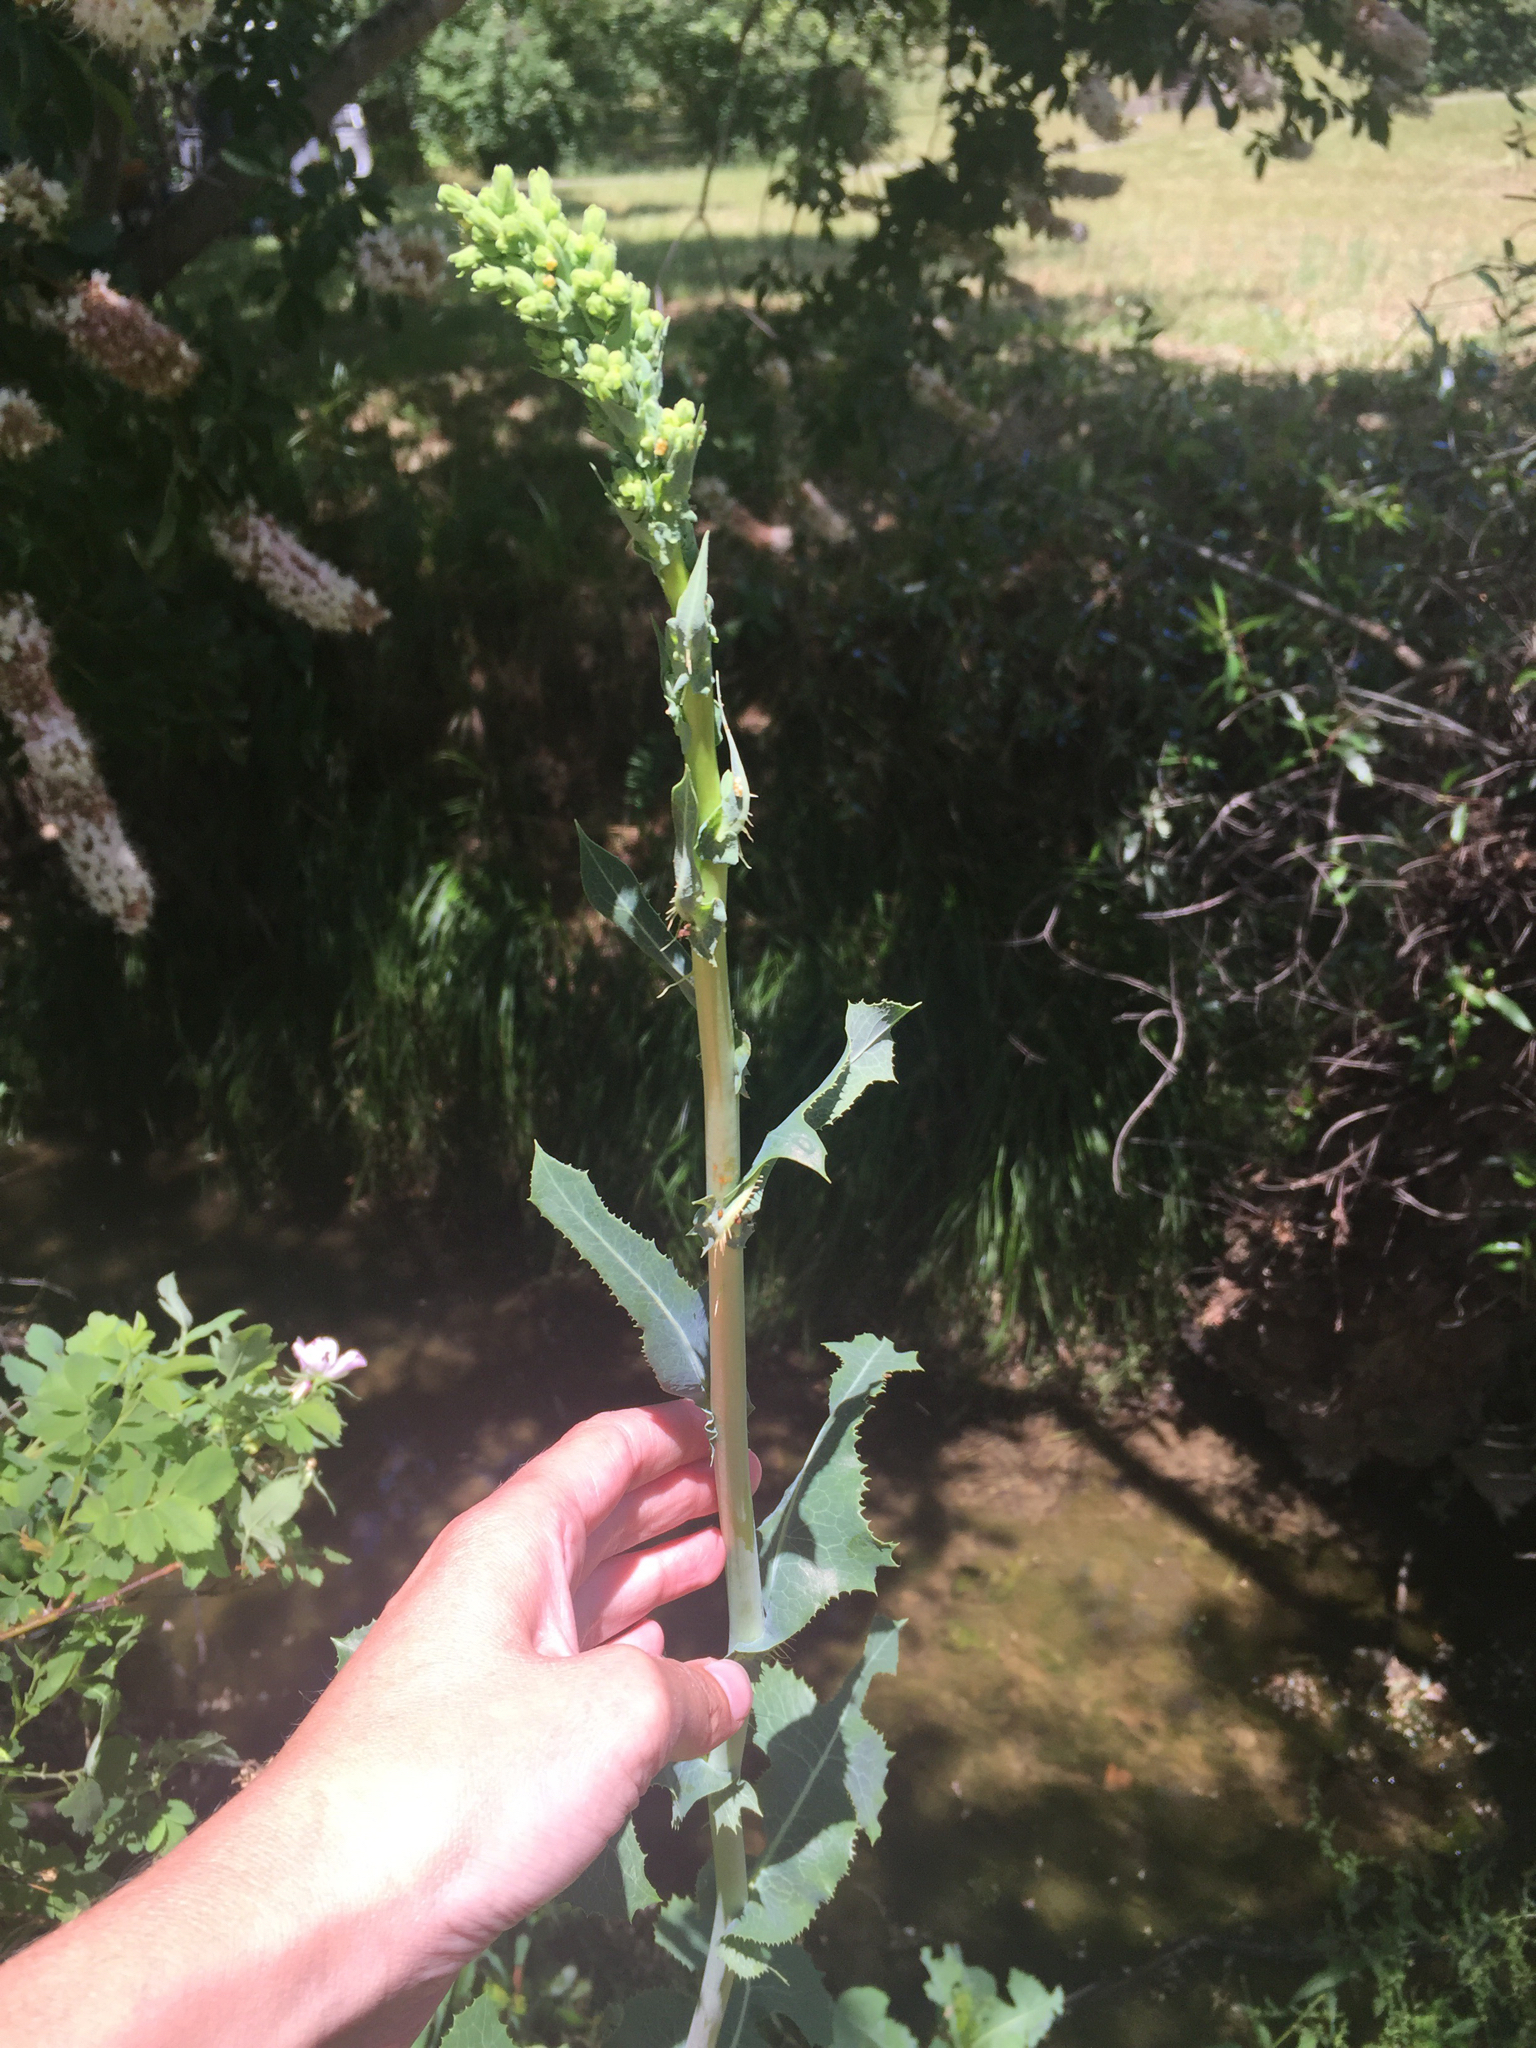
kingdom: Plantae
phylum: Tracheophyta
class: Magnoliopsida
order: Asterales
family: Asteraceae
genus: Lactuca
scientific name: Lactuca serriola
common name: Prickly lettuce
